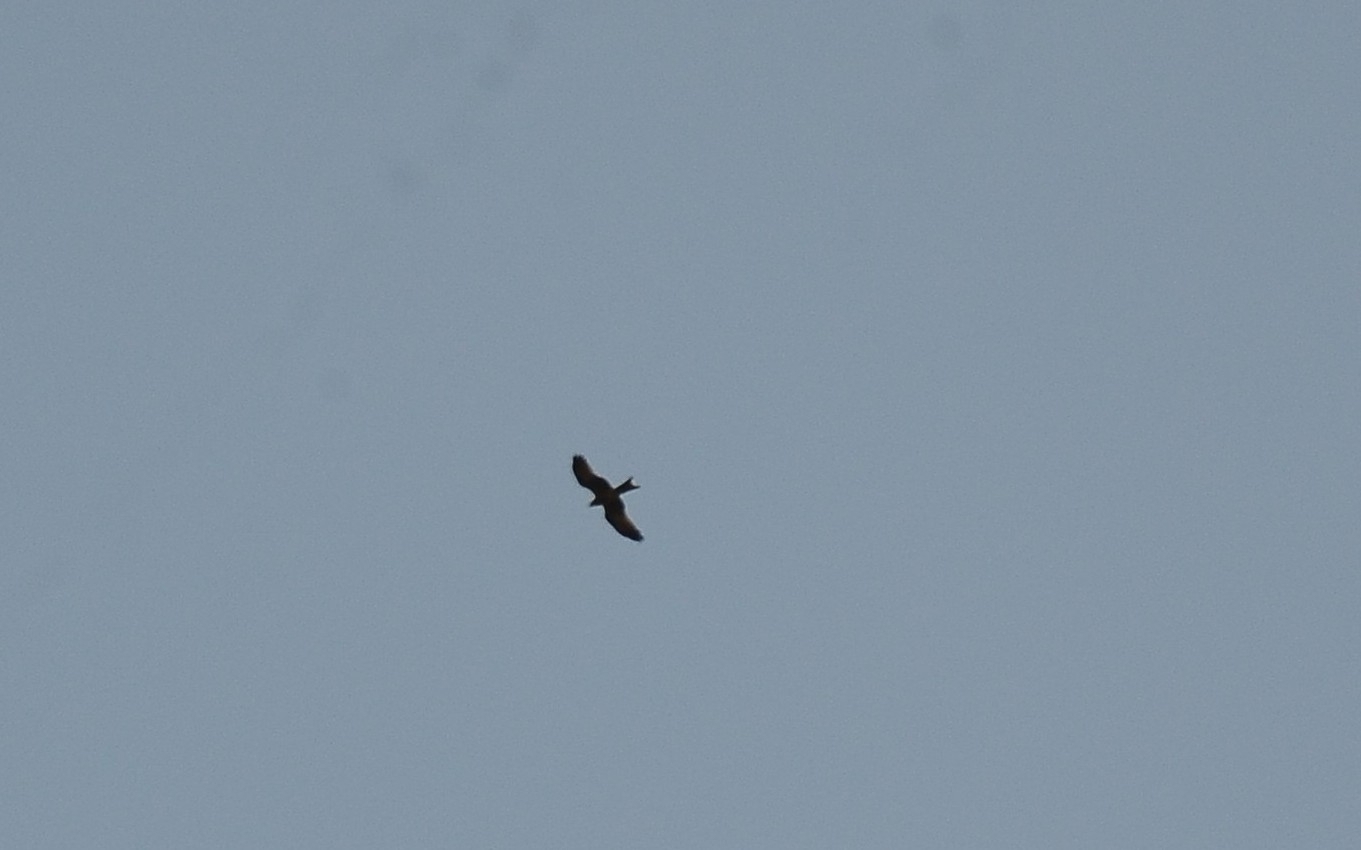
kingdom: Animalia
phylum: Chordata
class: Aves
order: Accipitriformes
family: Accipitridae
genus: Milvus
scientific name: Milvus migrans
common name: Black kite
